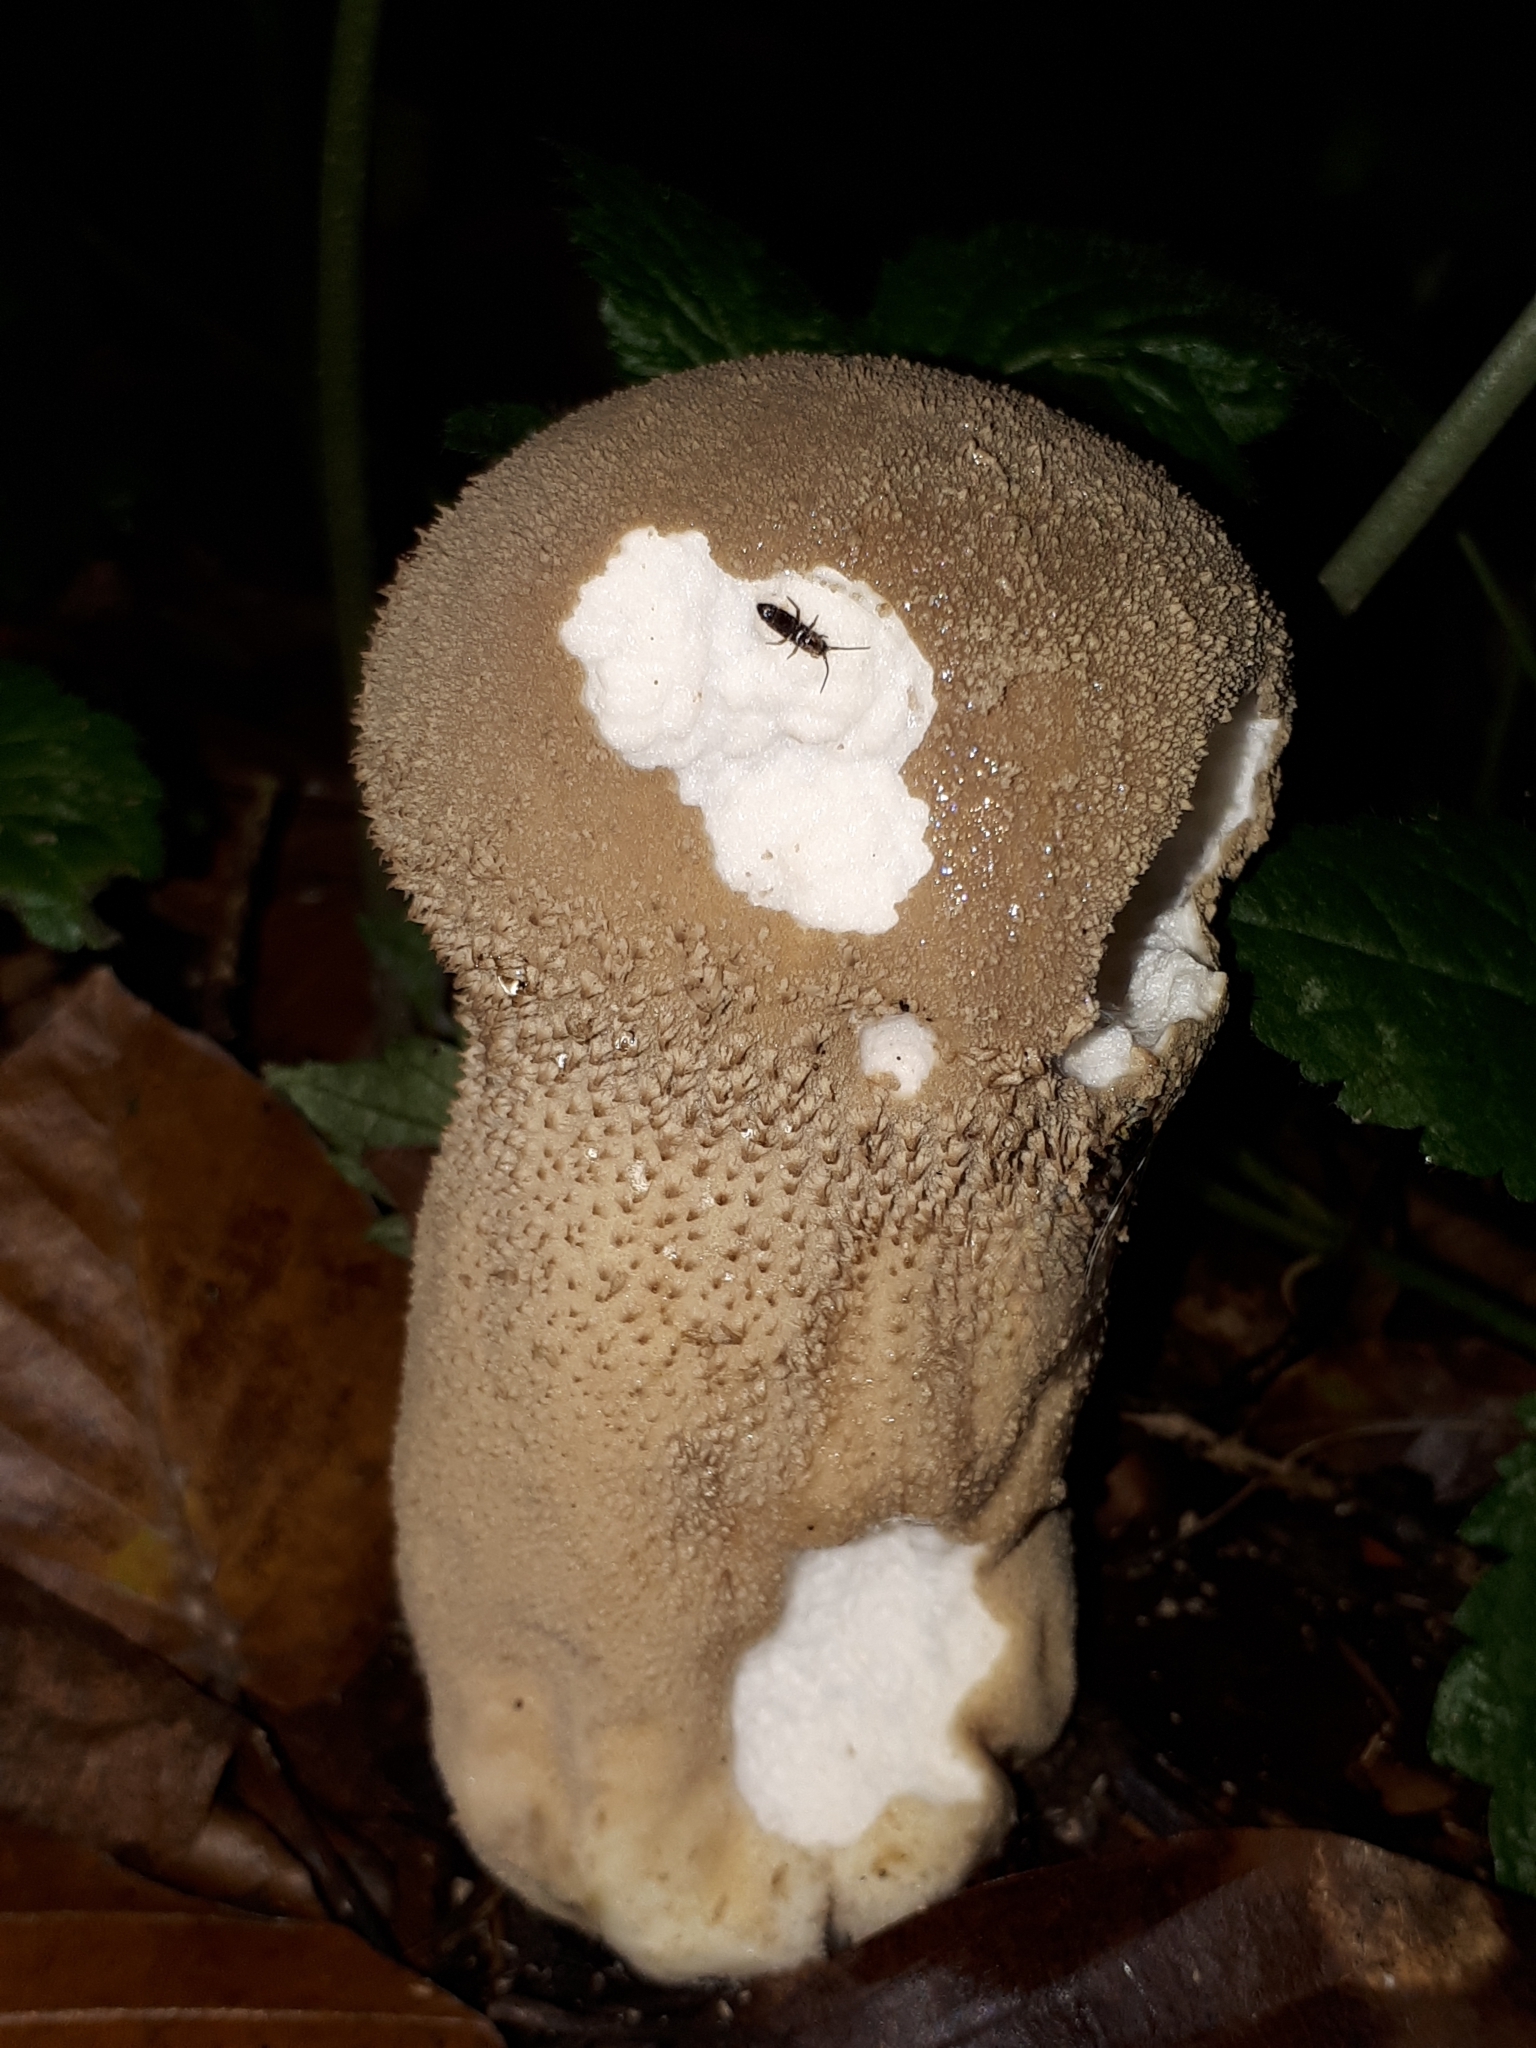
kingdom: Fungi
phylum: Basidiomycota
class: Agaricomycetes
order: Agaricales
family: Lycoperdaceae
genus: Lycoperdon
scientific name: Lycoperdon excipuliforme
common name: Pestle puffball
